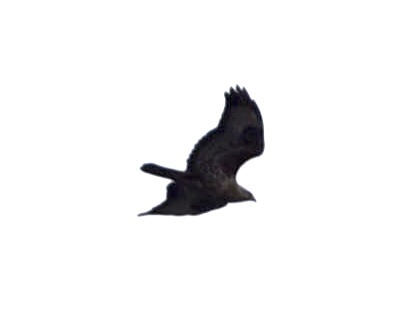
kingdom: Animalia
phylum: Chordata
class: Aves
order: Accipitriformes
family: Accipitridae
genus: Buteo
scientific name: Buteo buteo
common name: Common buzzard
